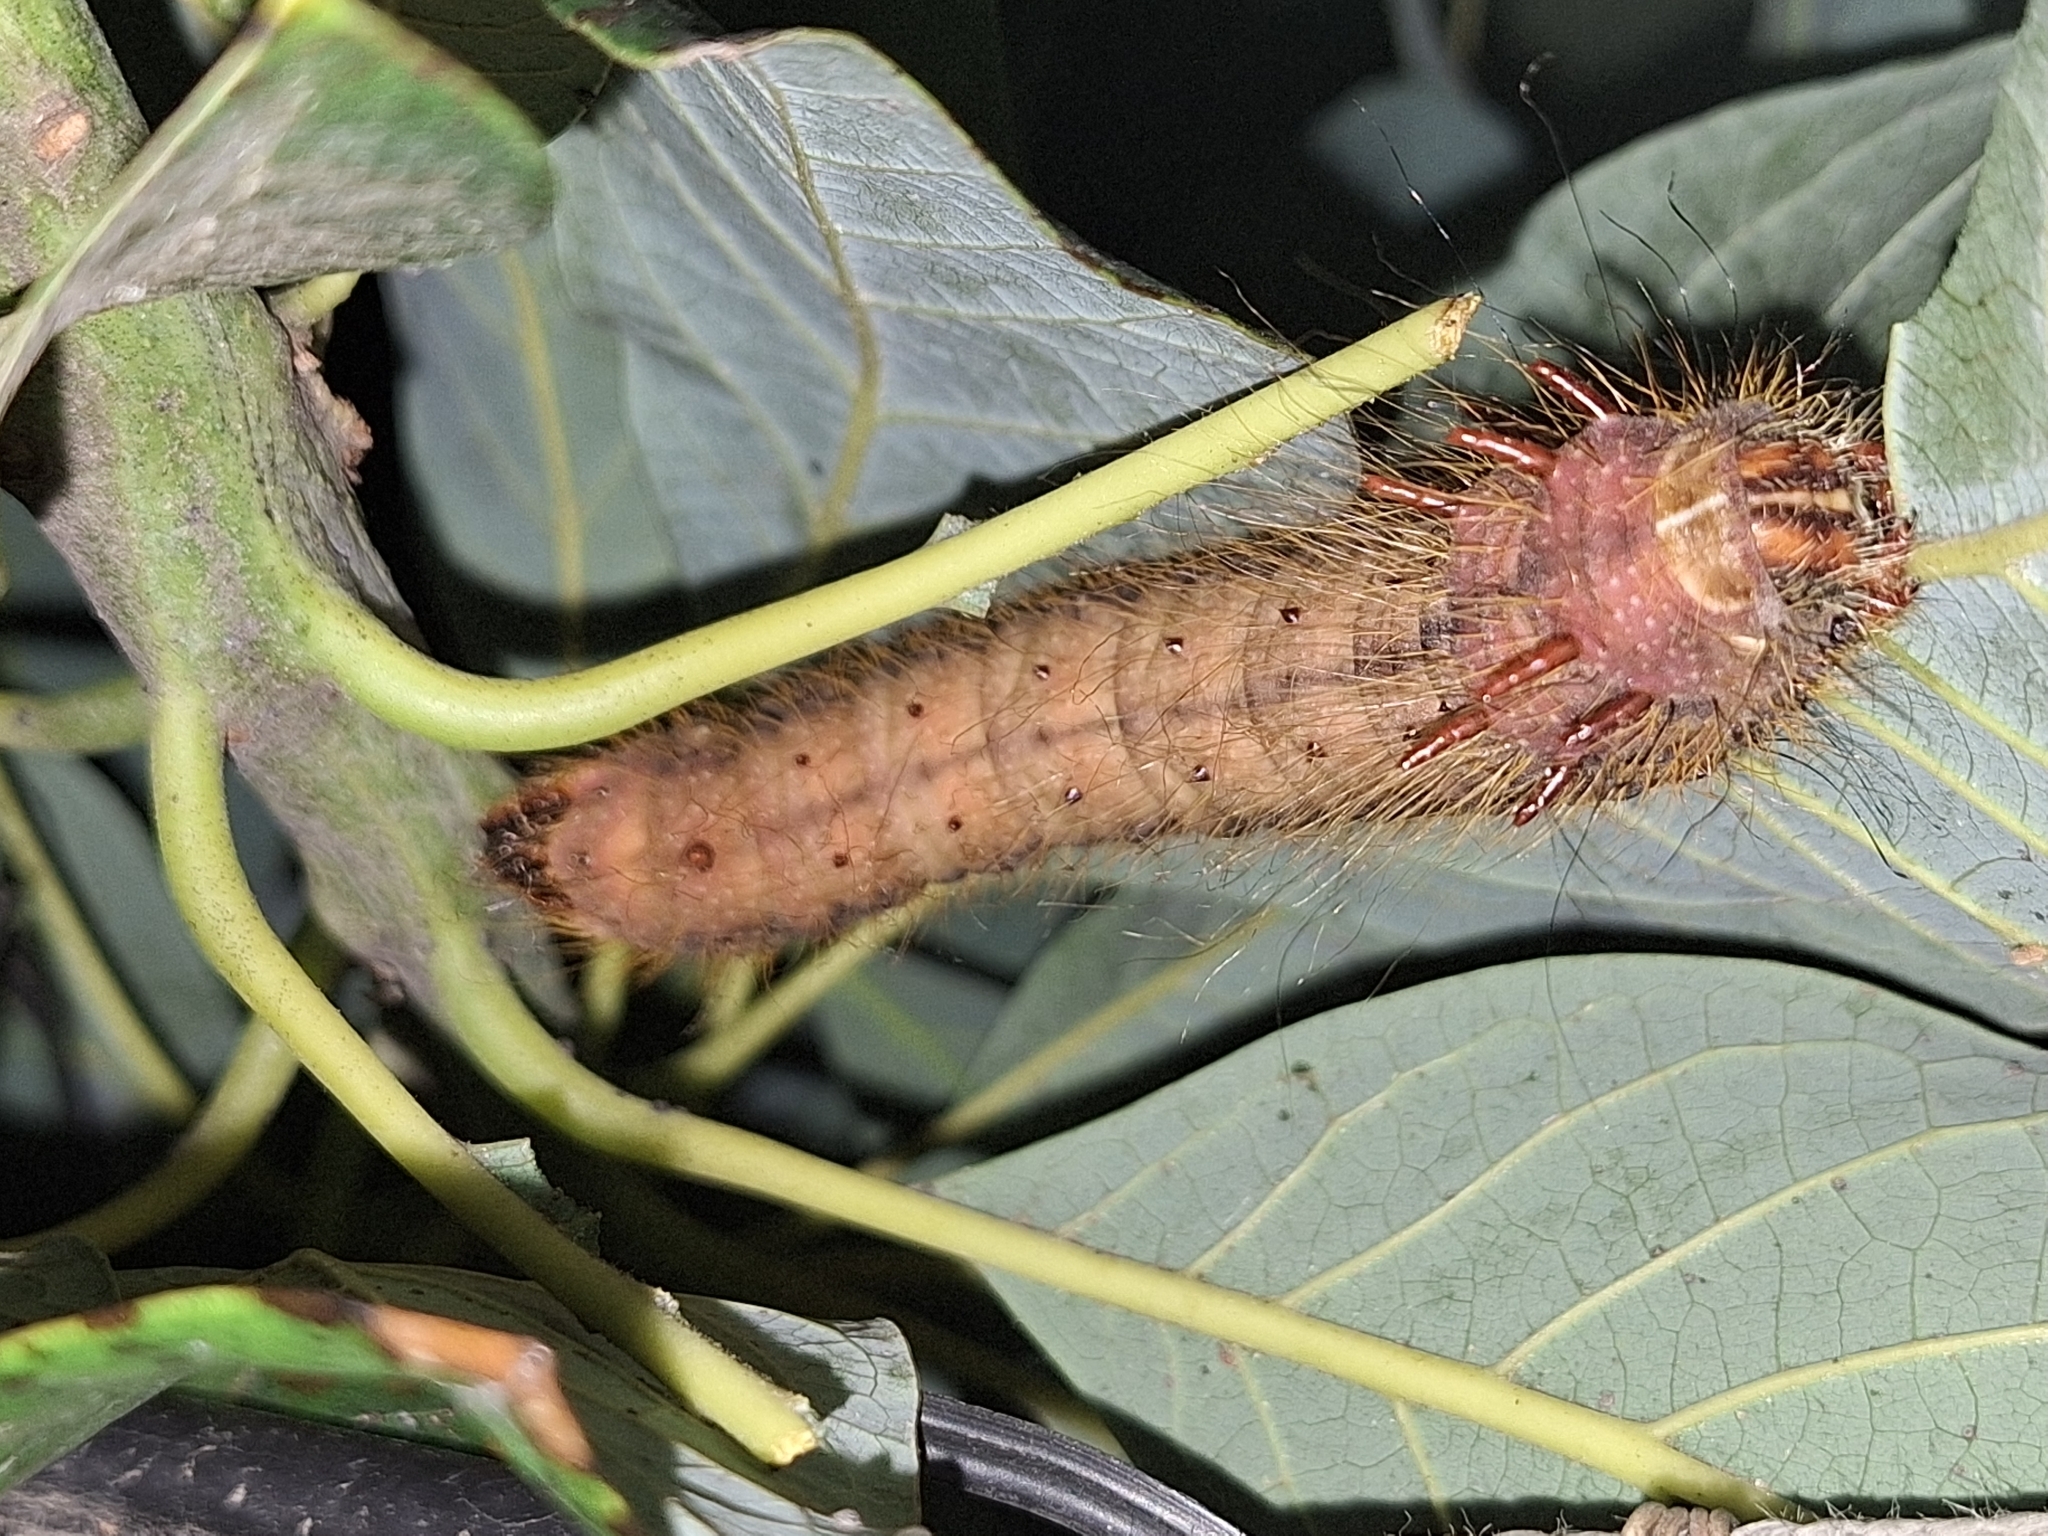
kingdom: Animalia
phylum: Arthropoda
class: Insecta
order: Lepidoptera
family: Saturniidae
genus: Eacles
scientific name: Eacles imperialis
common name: Imperial moth
